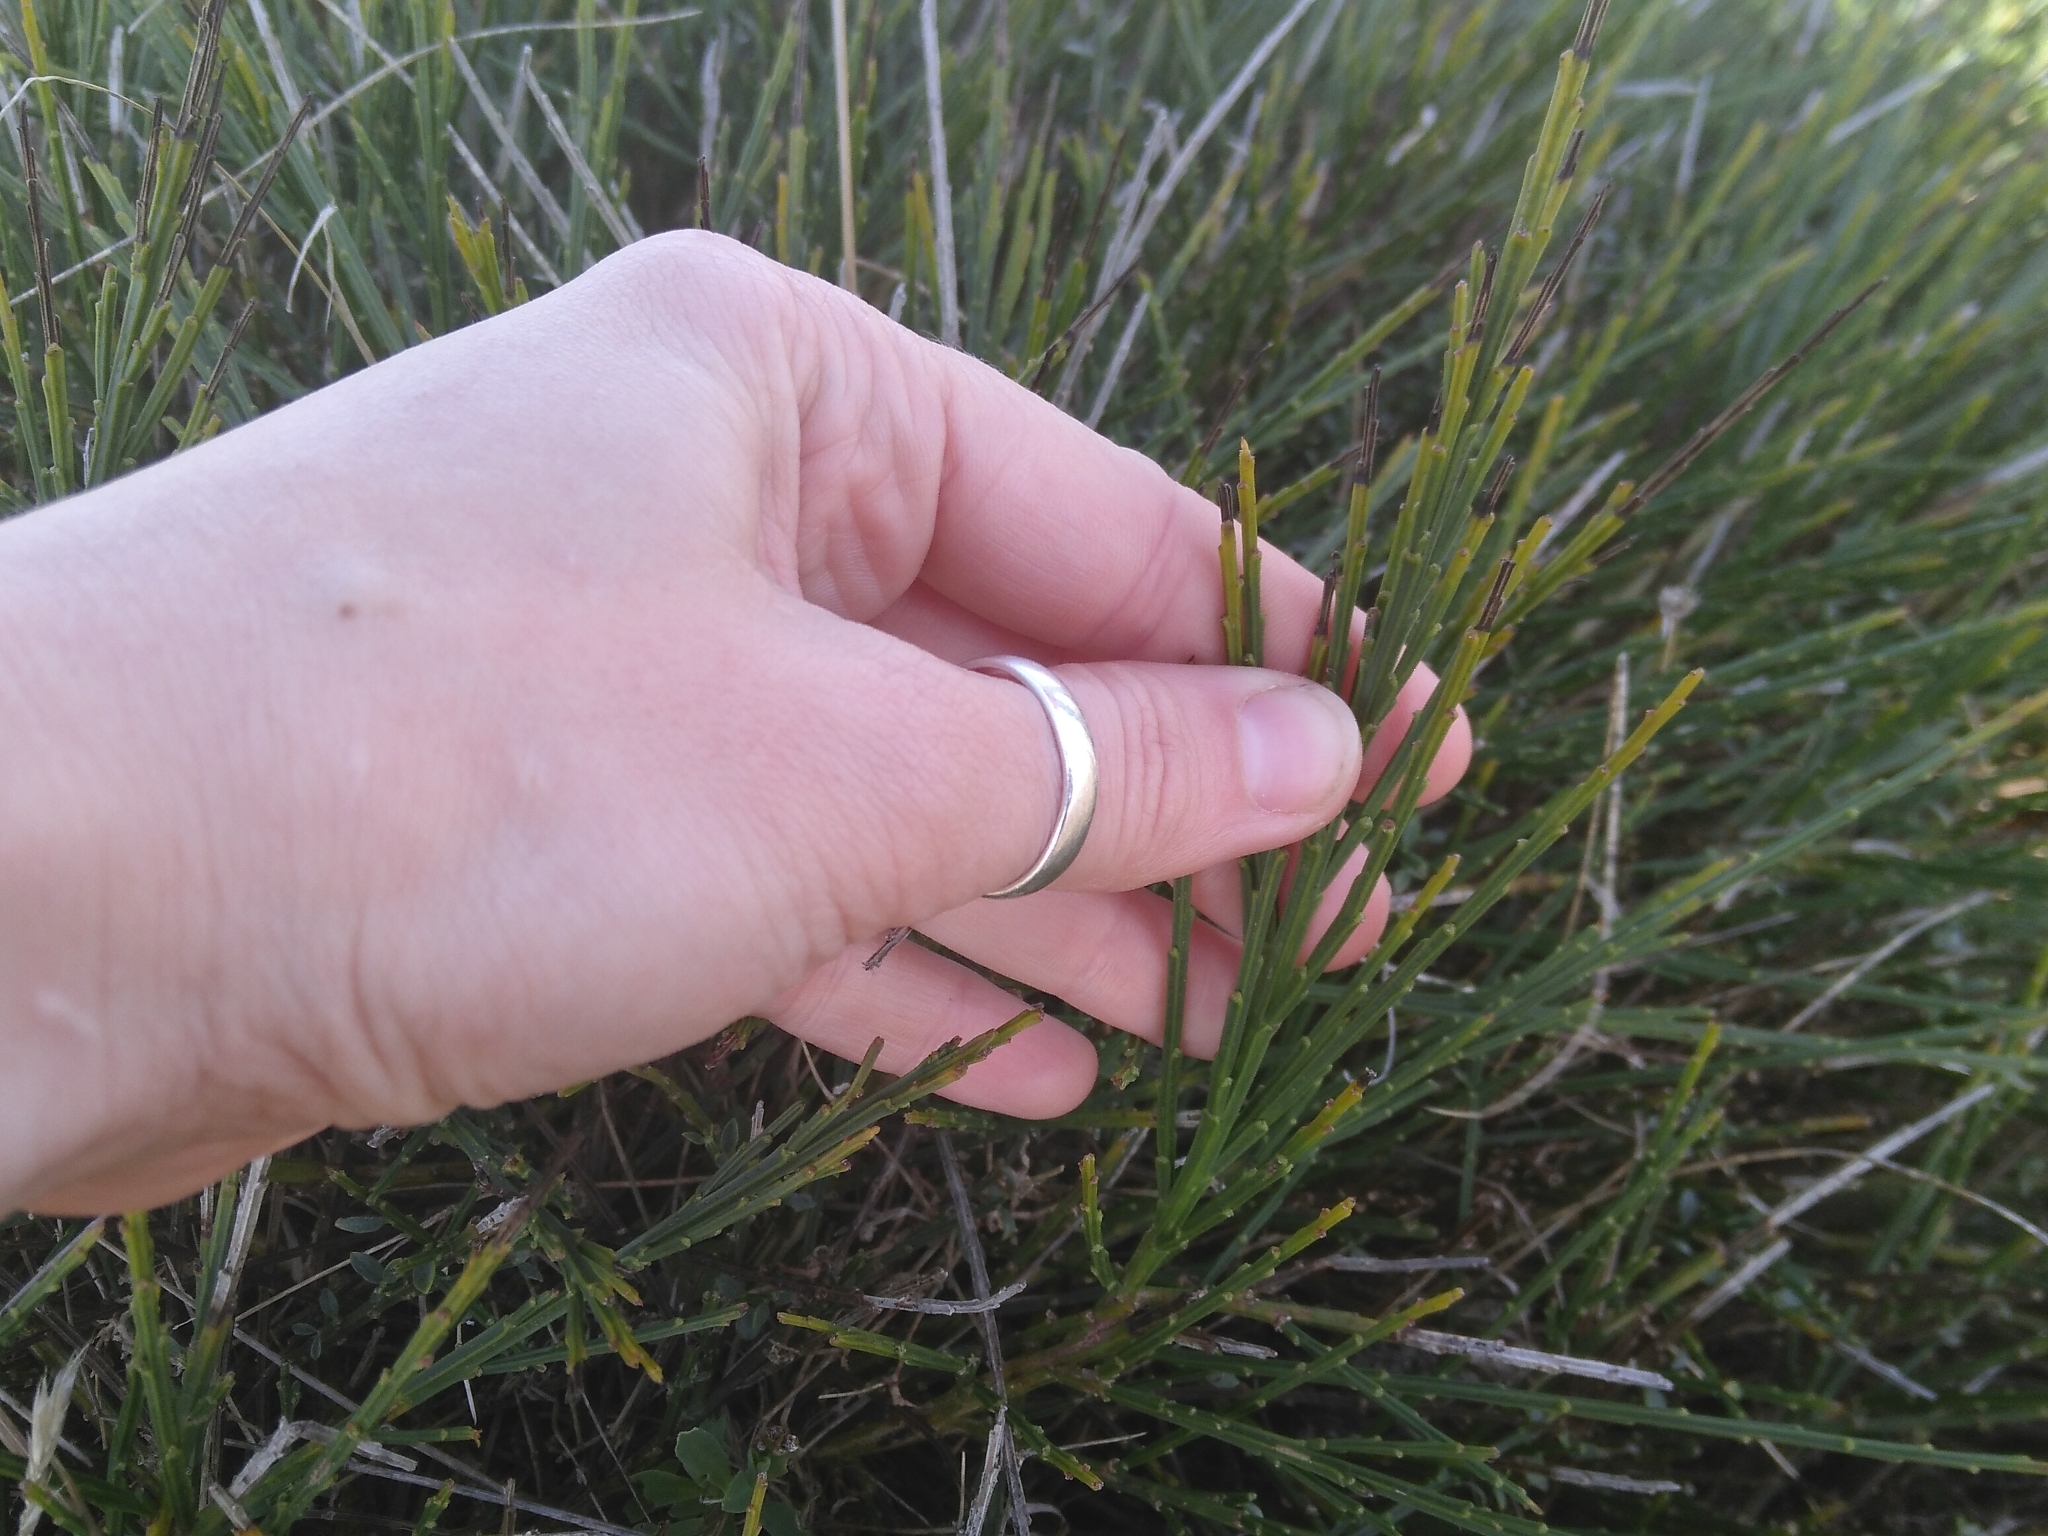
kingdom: Plantae
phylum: Tracheophyta
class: Magnoliopsida
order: Fabales
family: Fabaceae
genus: Cytisus
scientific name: Cytisus scoparius
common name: Scotch broom
